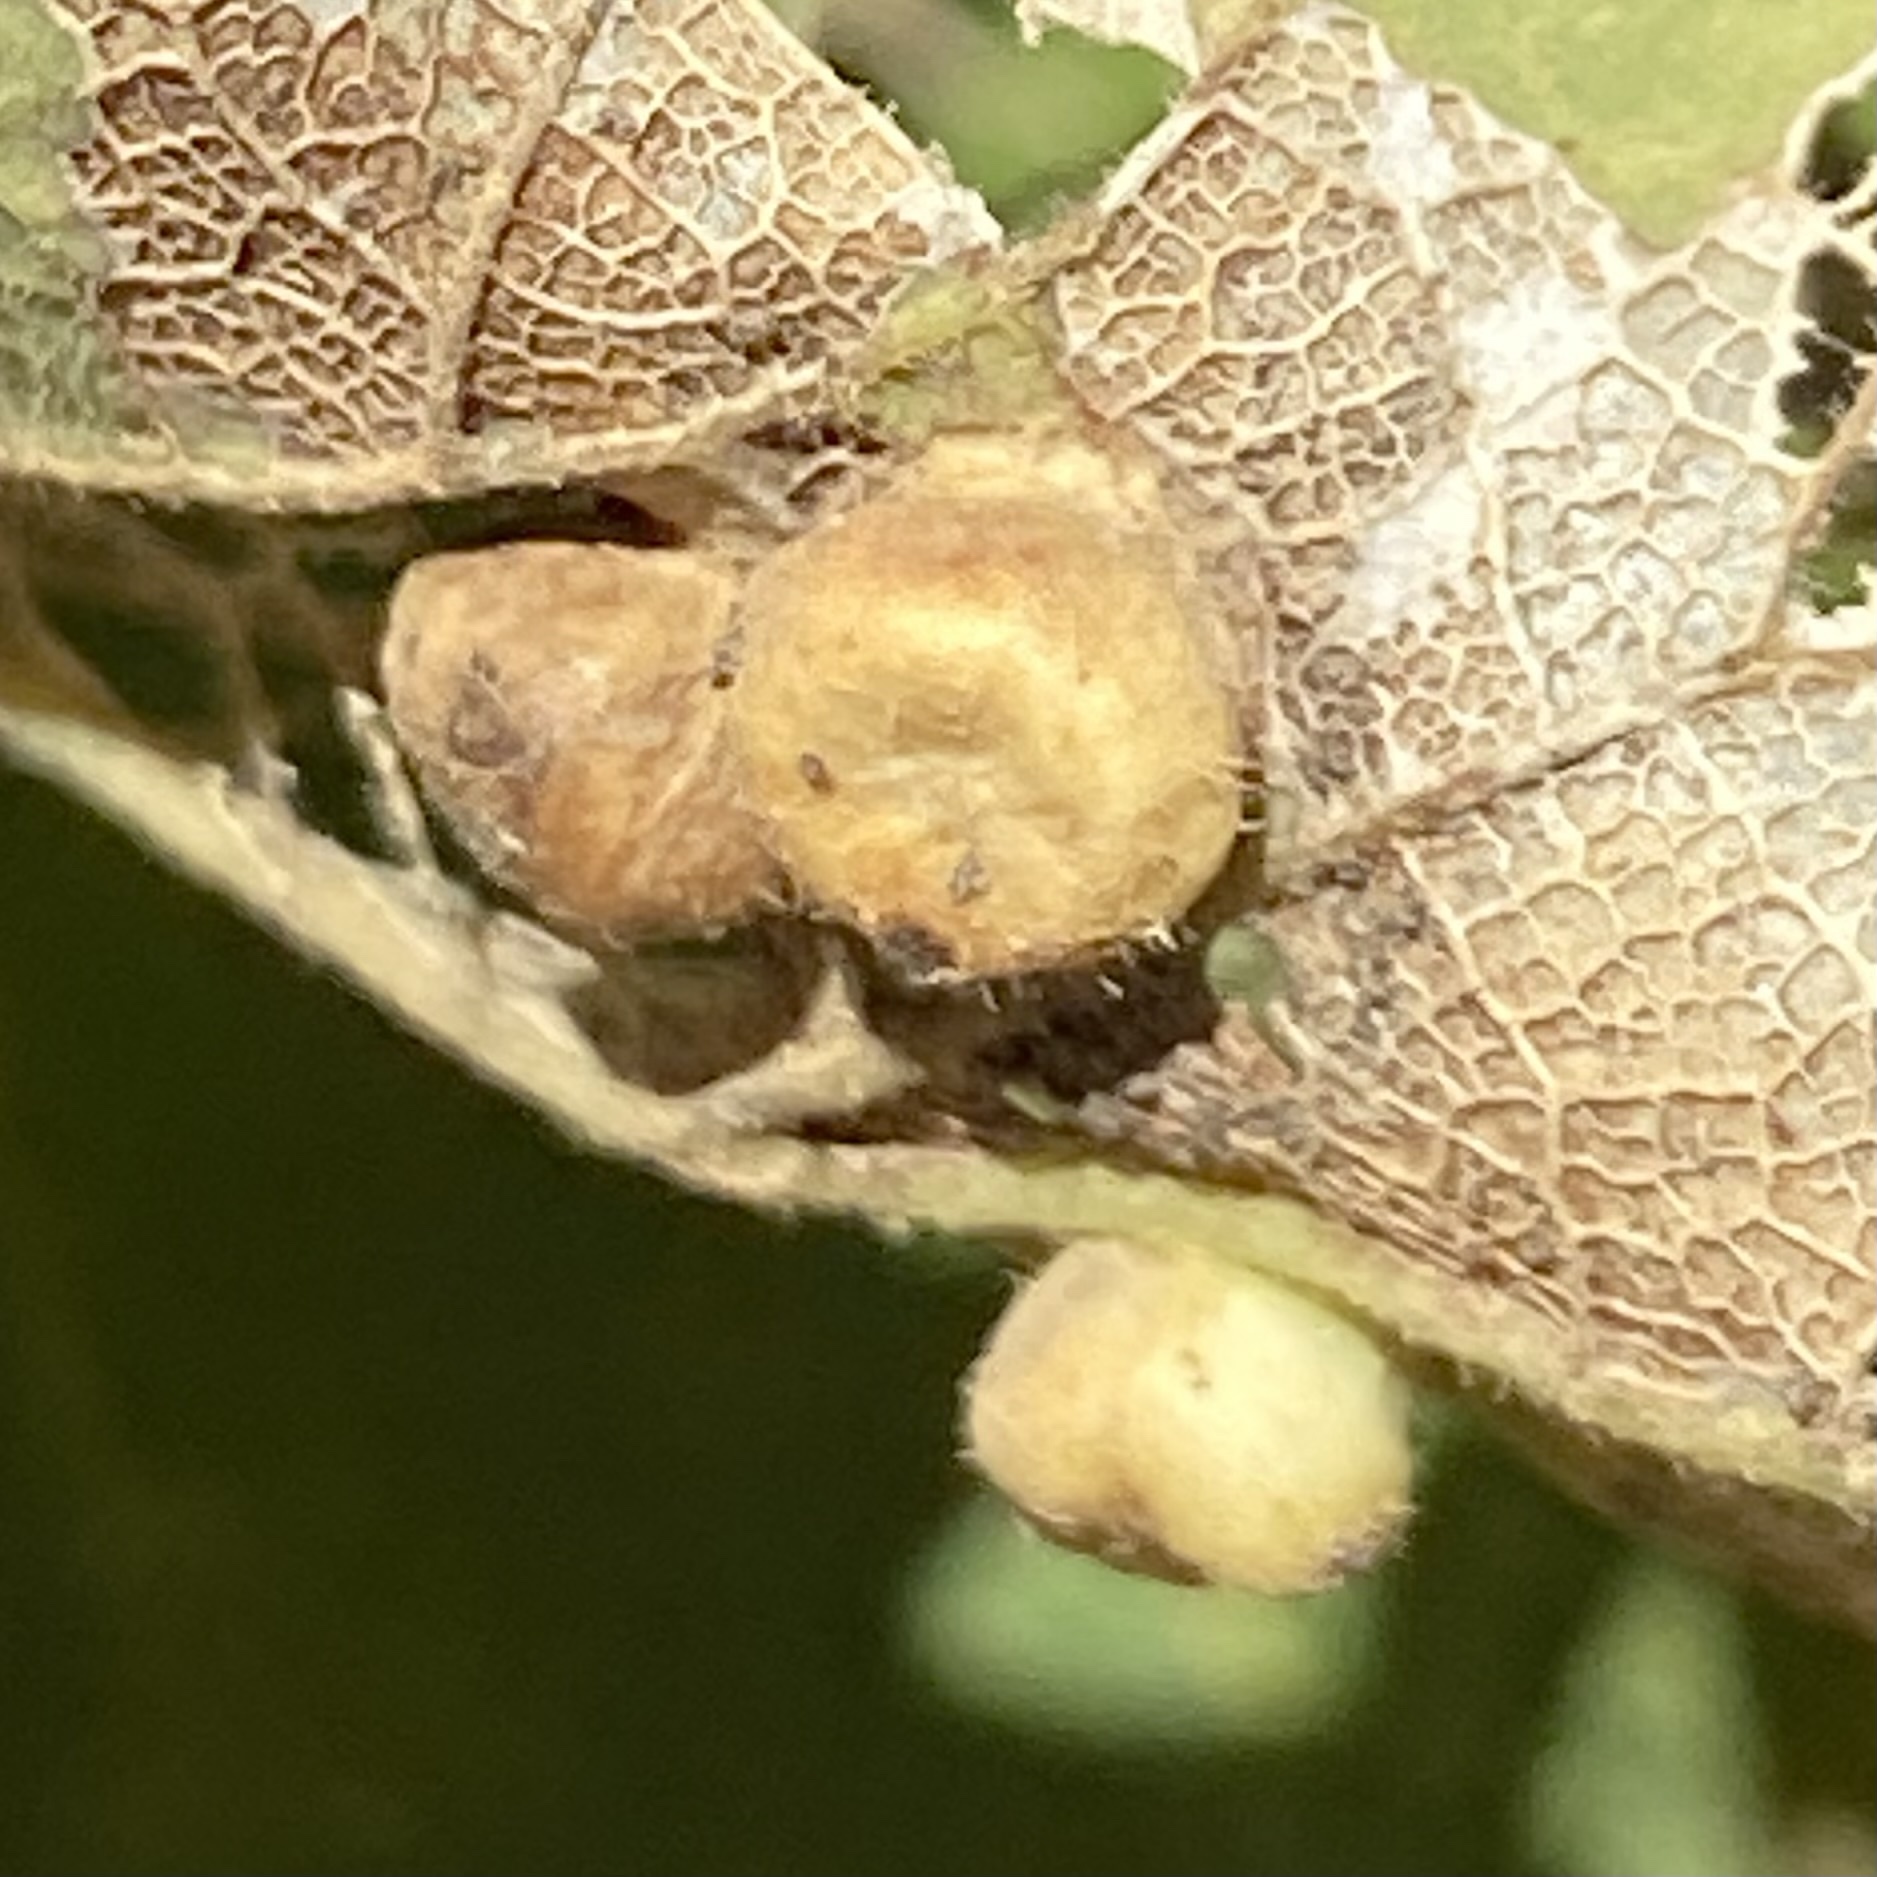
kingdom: Animalia
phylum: Arthropoda
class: Insecta
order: Hemiptera
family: Aphalaridae
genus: Pachypsylla
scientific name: Pachypsylla celtidismamma
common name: Hackberry nipplegall psyllid
